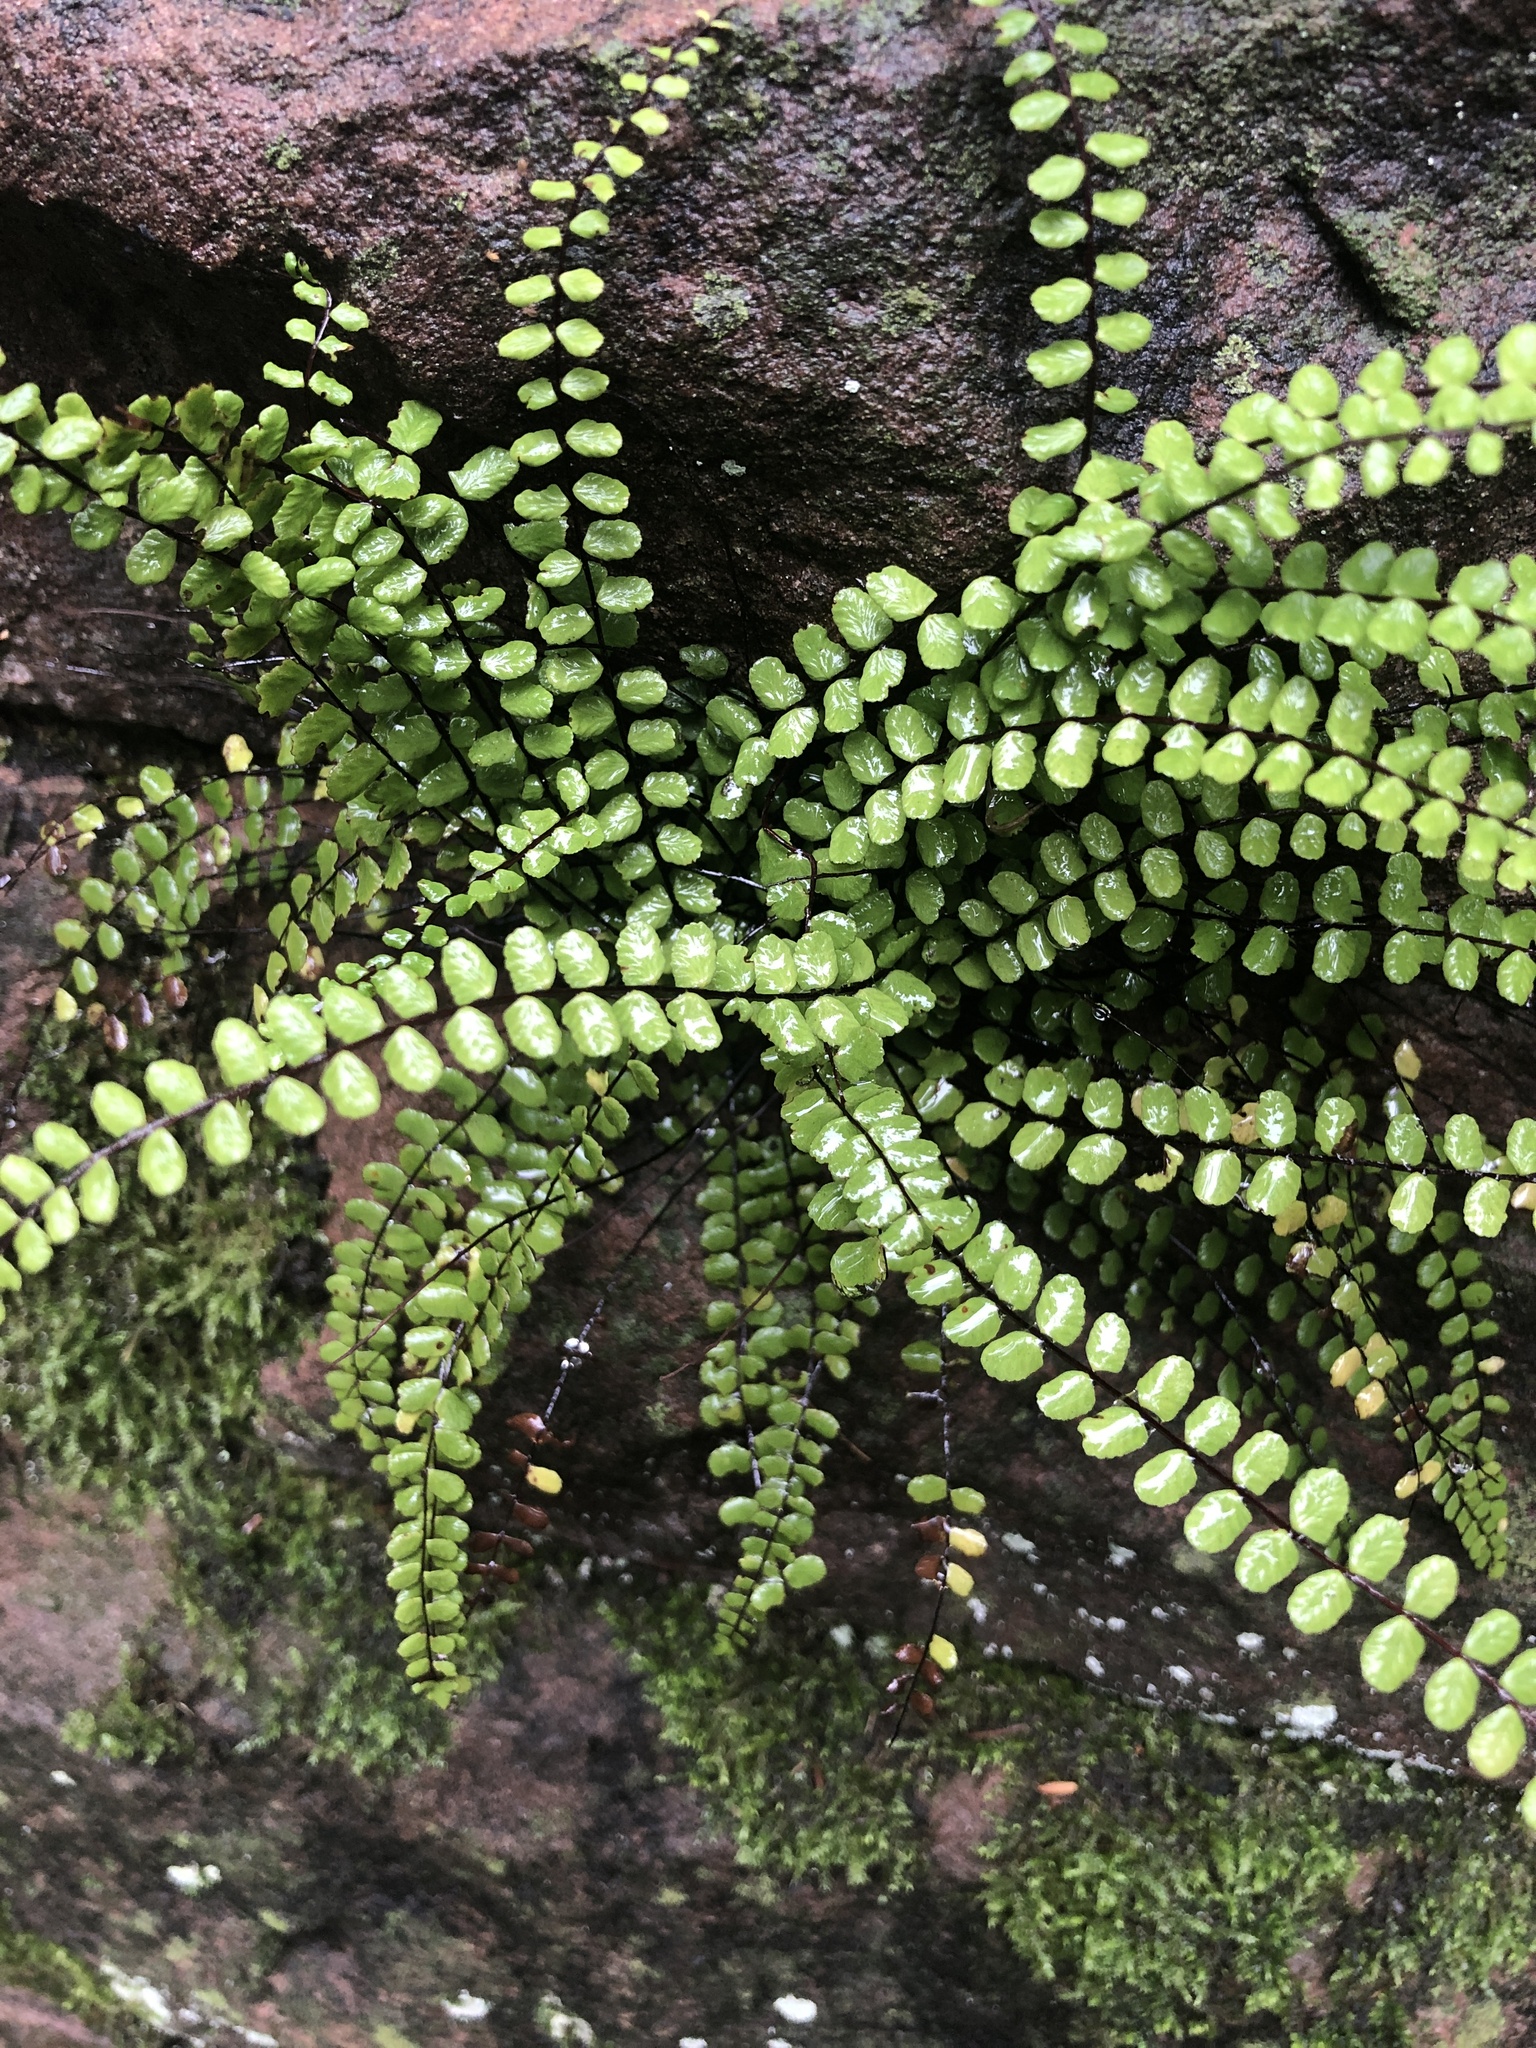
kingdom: Plantae
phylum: Tracheophyta
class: Polypodiopsida
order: Polypodiales
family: Aspleniaceae
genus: Asplenium
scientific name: Asplenium trichomanes
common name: Maidenhair spleenwort
